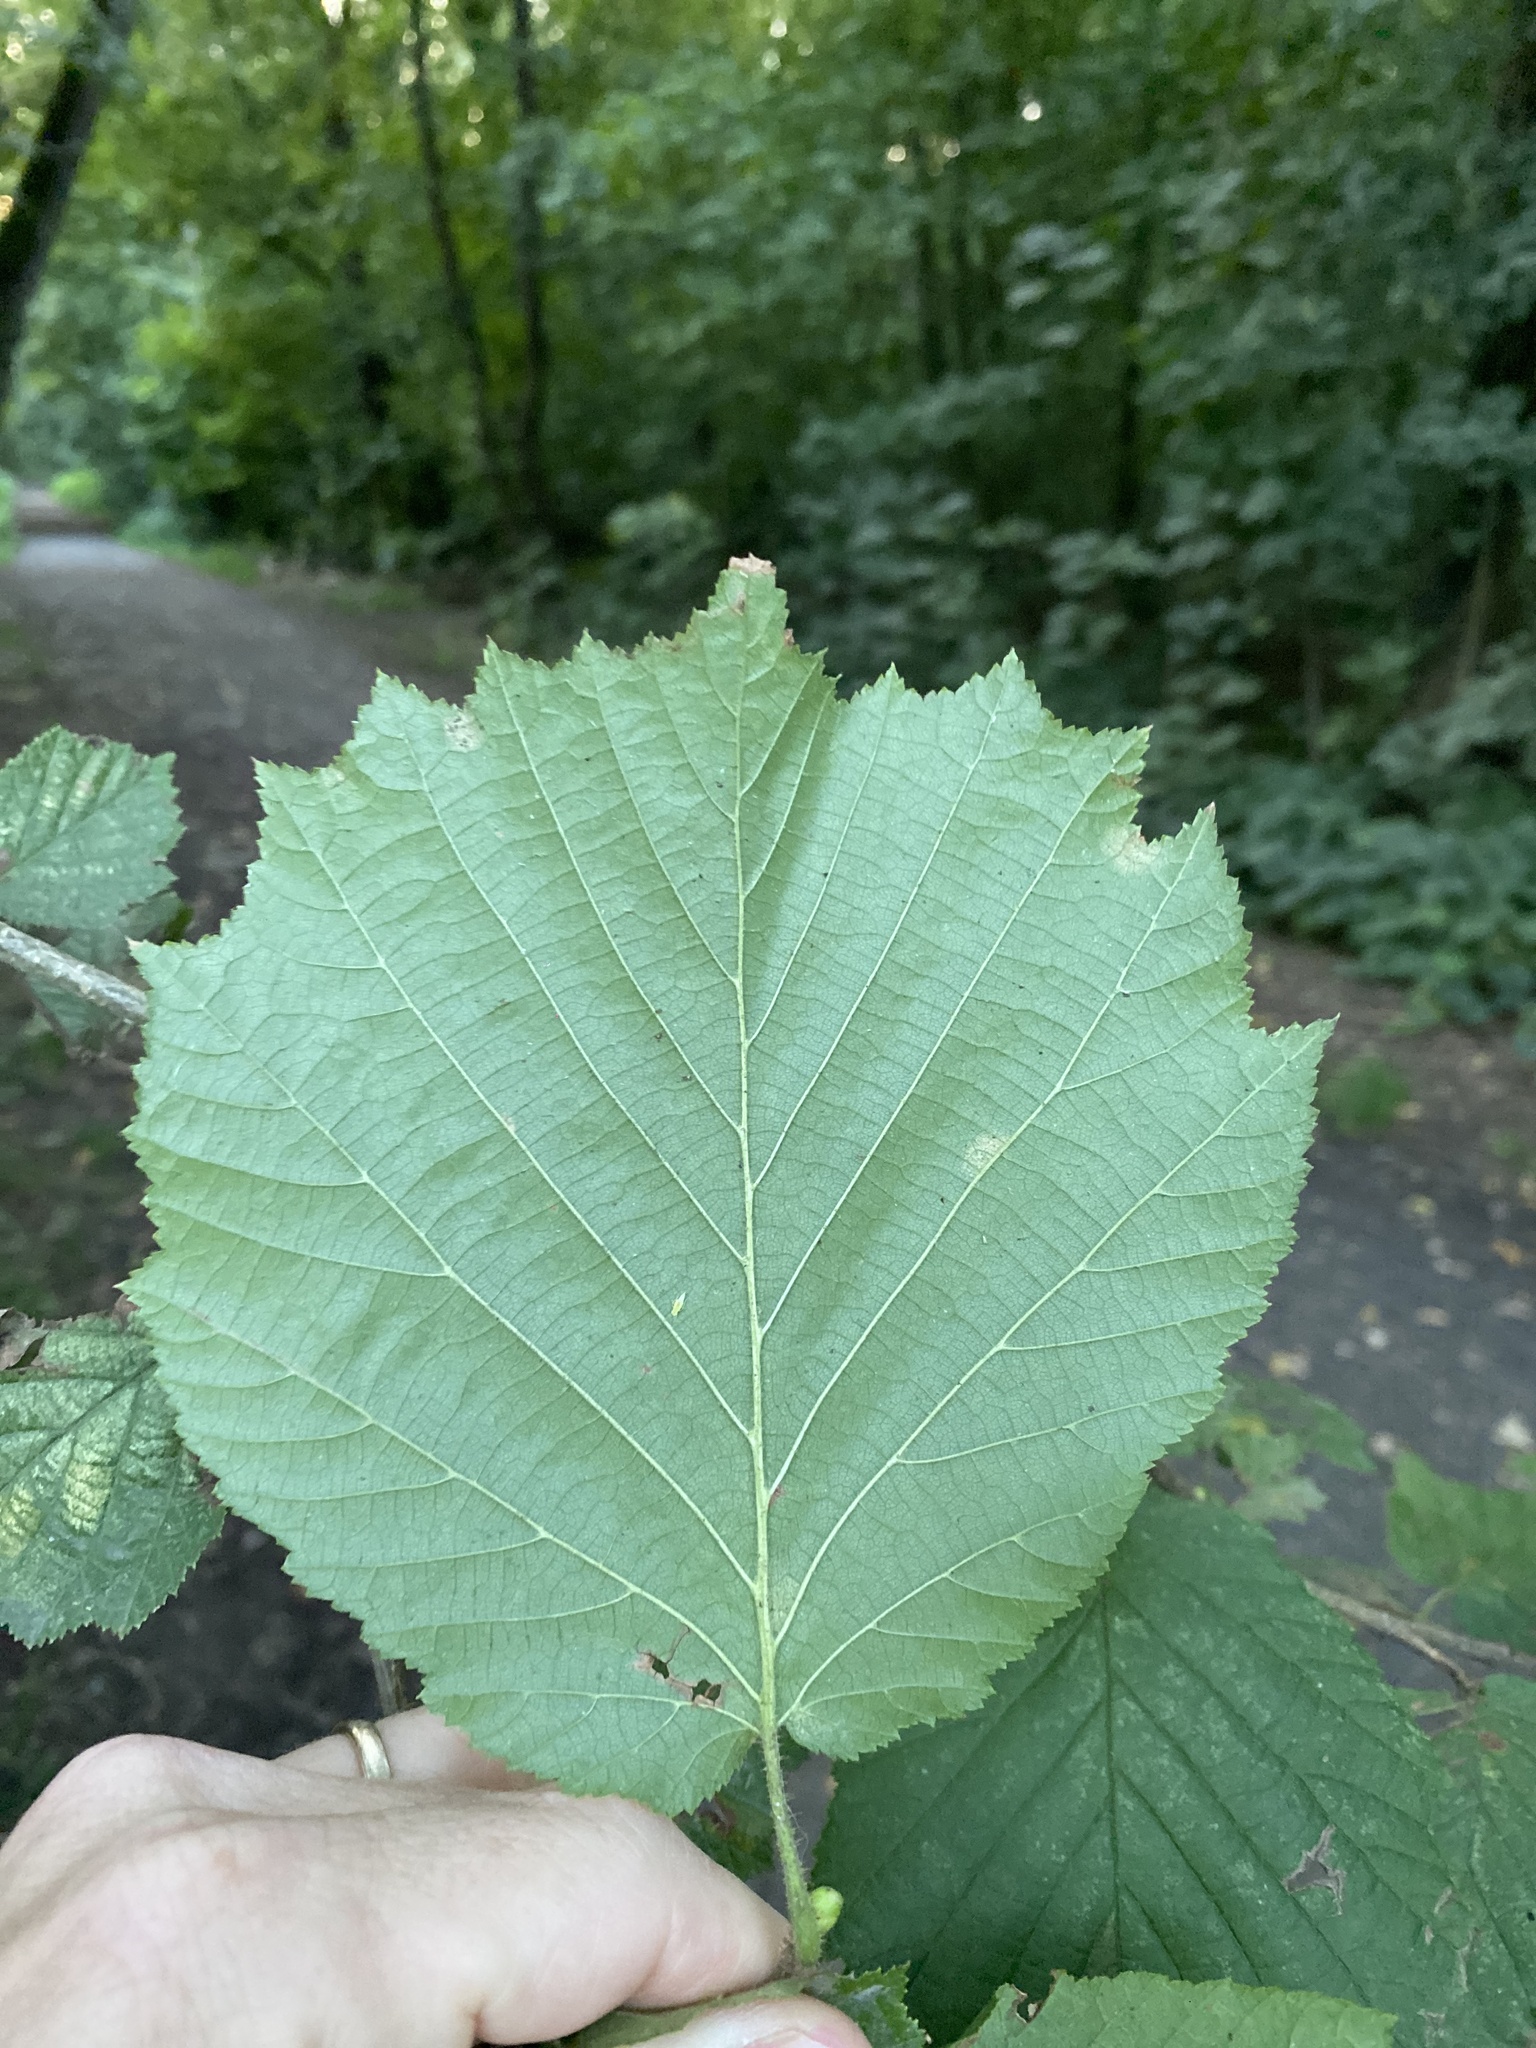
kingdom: Plantae
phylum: Tracheophyta
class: Magnoliopsida
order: Fagales
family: Betulaceae
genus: Corylus
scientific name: Corylus avellana
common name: European hazel
